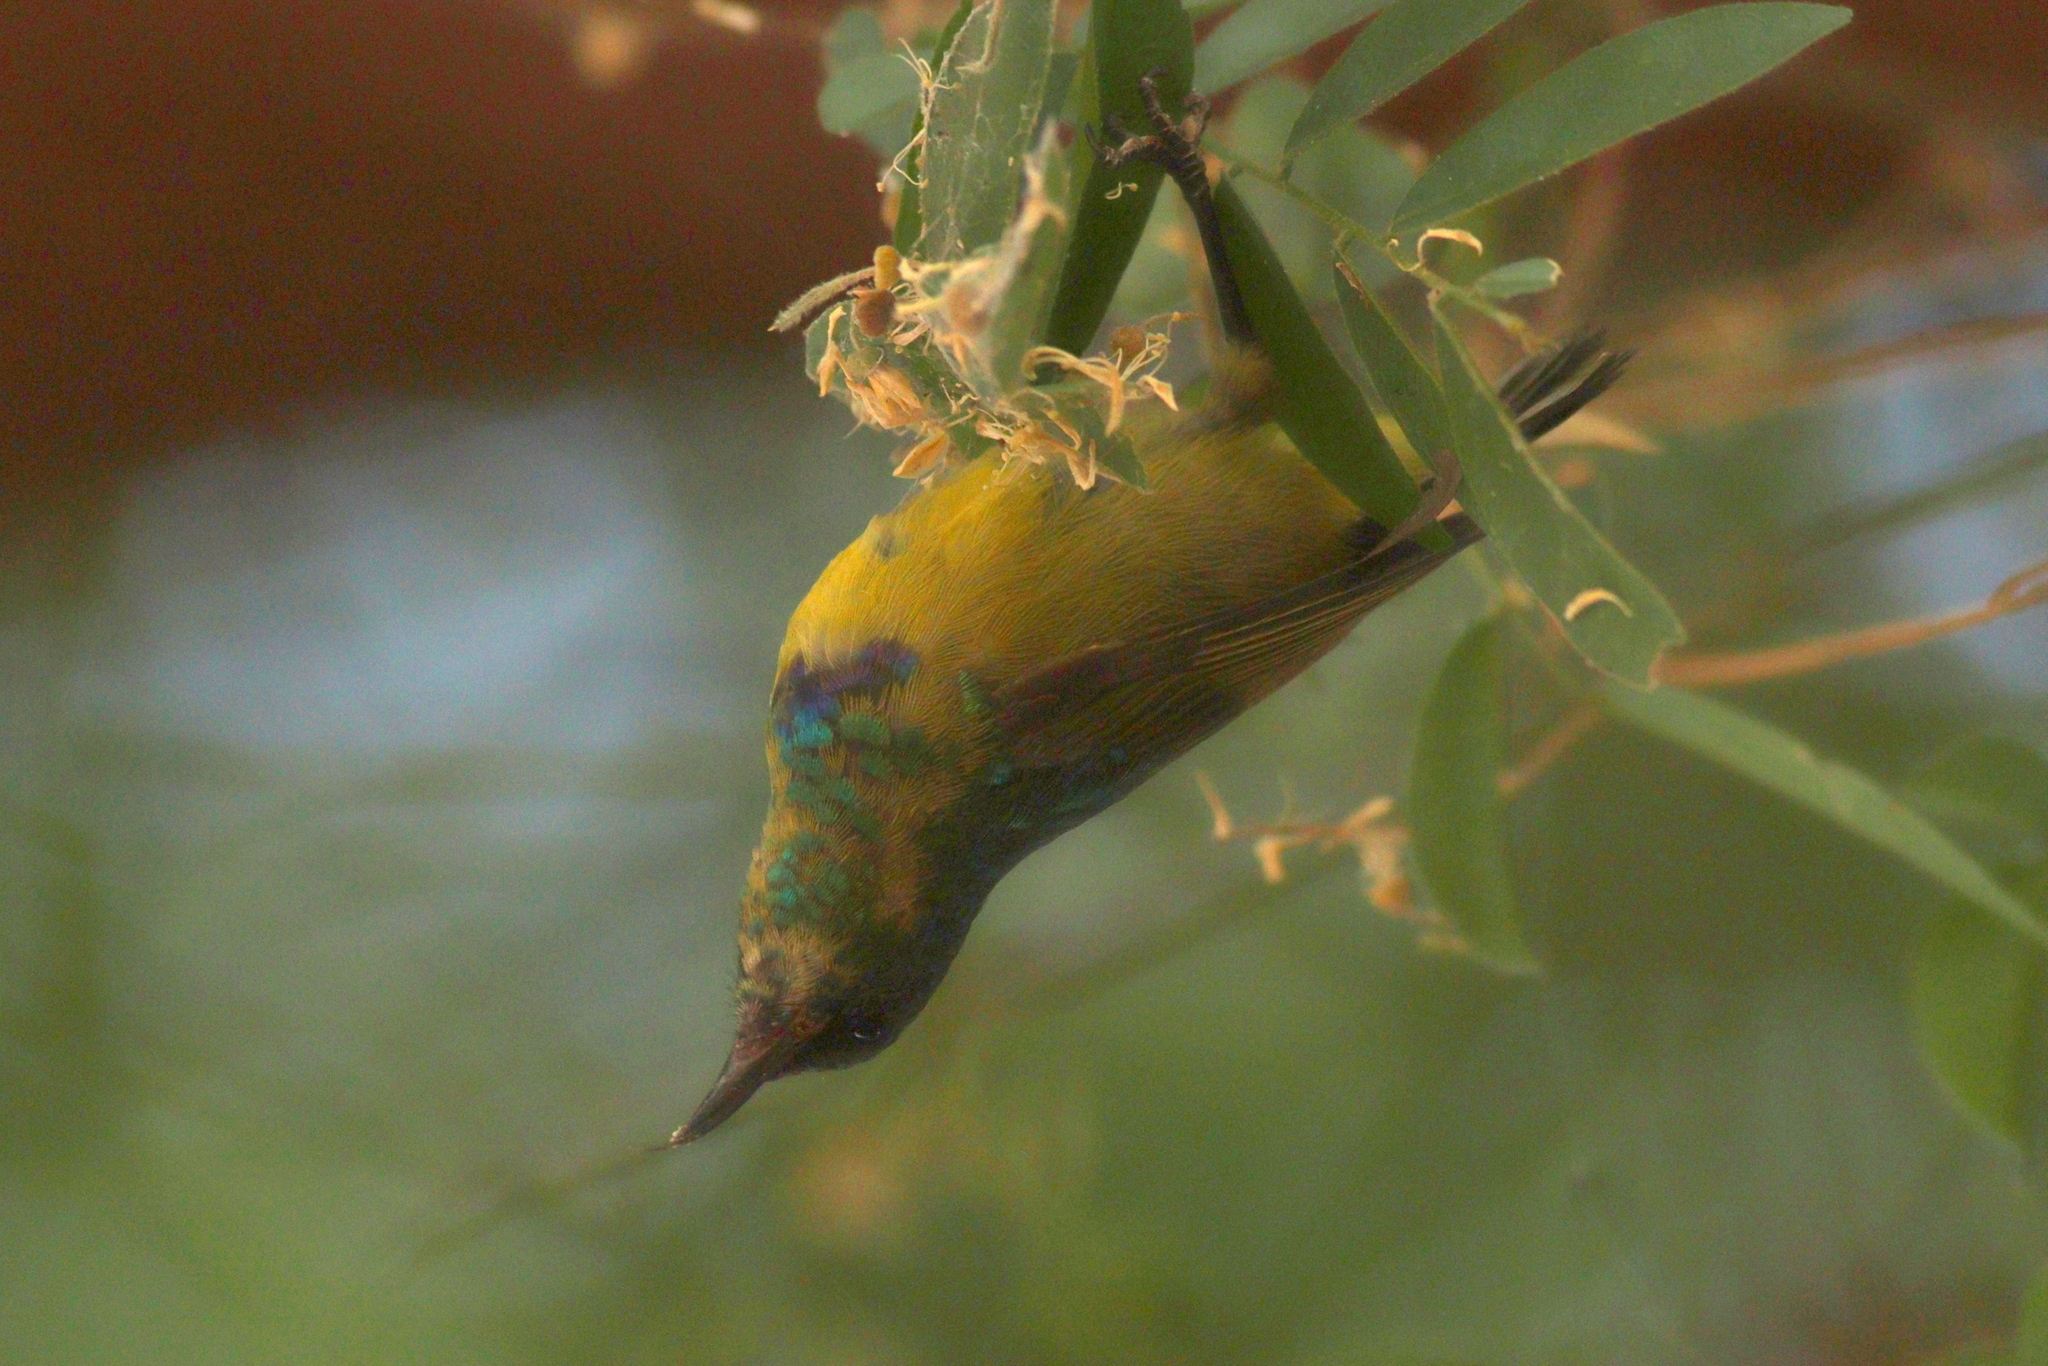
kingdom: Animalia
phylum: Chordata
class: Aves
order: Passeriformes
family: Nectariniidae
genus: Hedydipna
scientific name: Hedydipna collaris
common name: Collared sunbird
